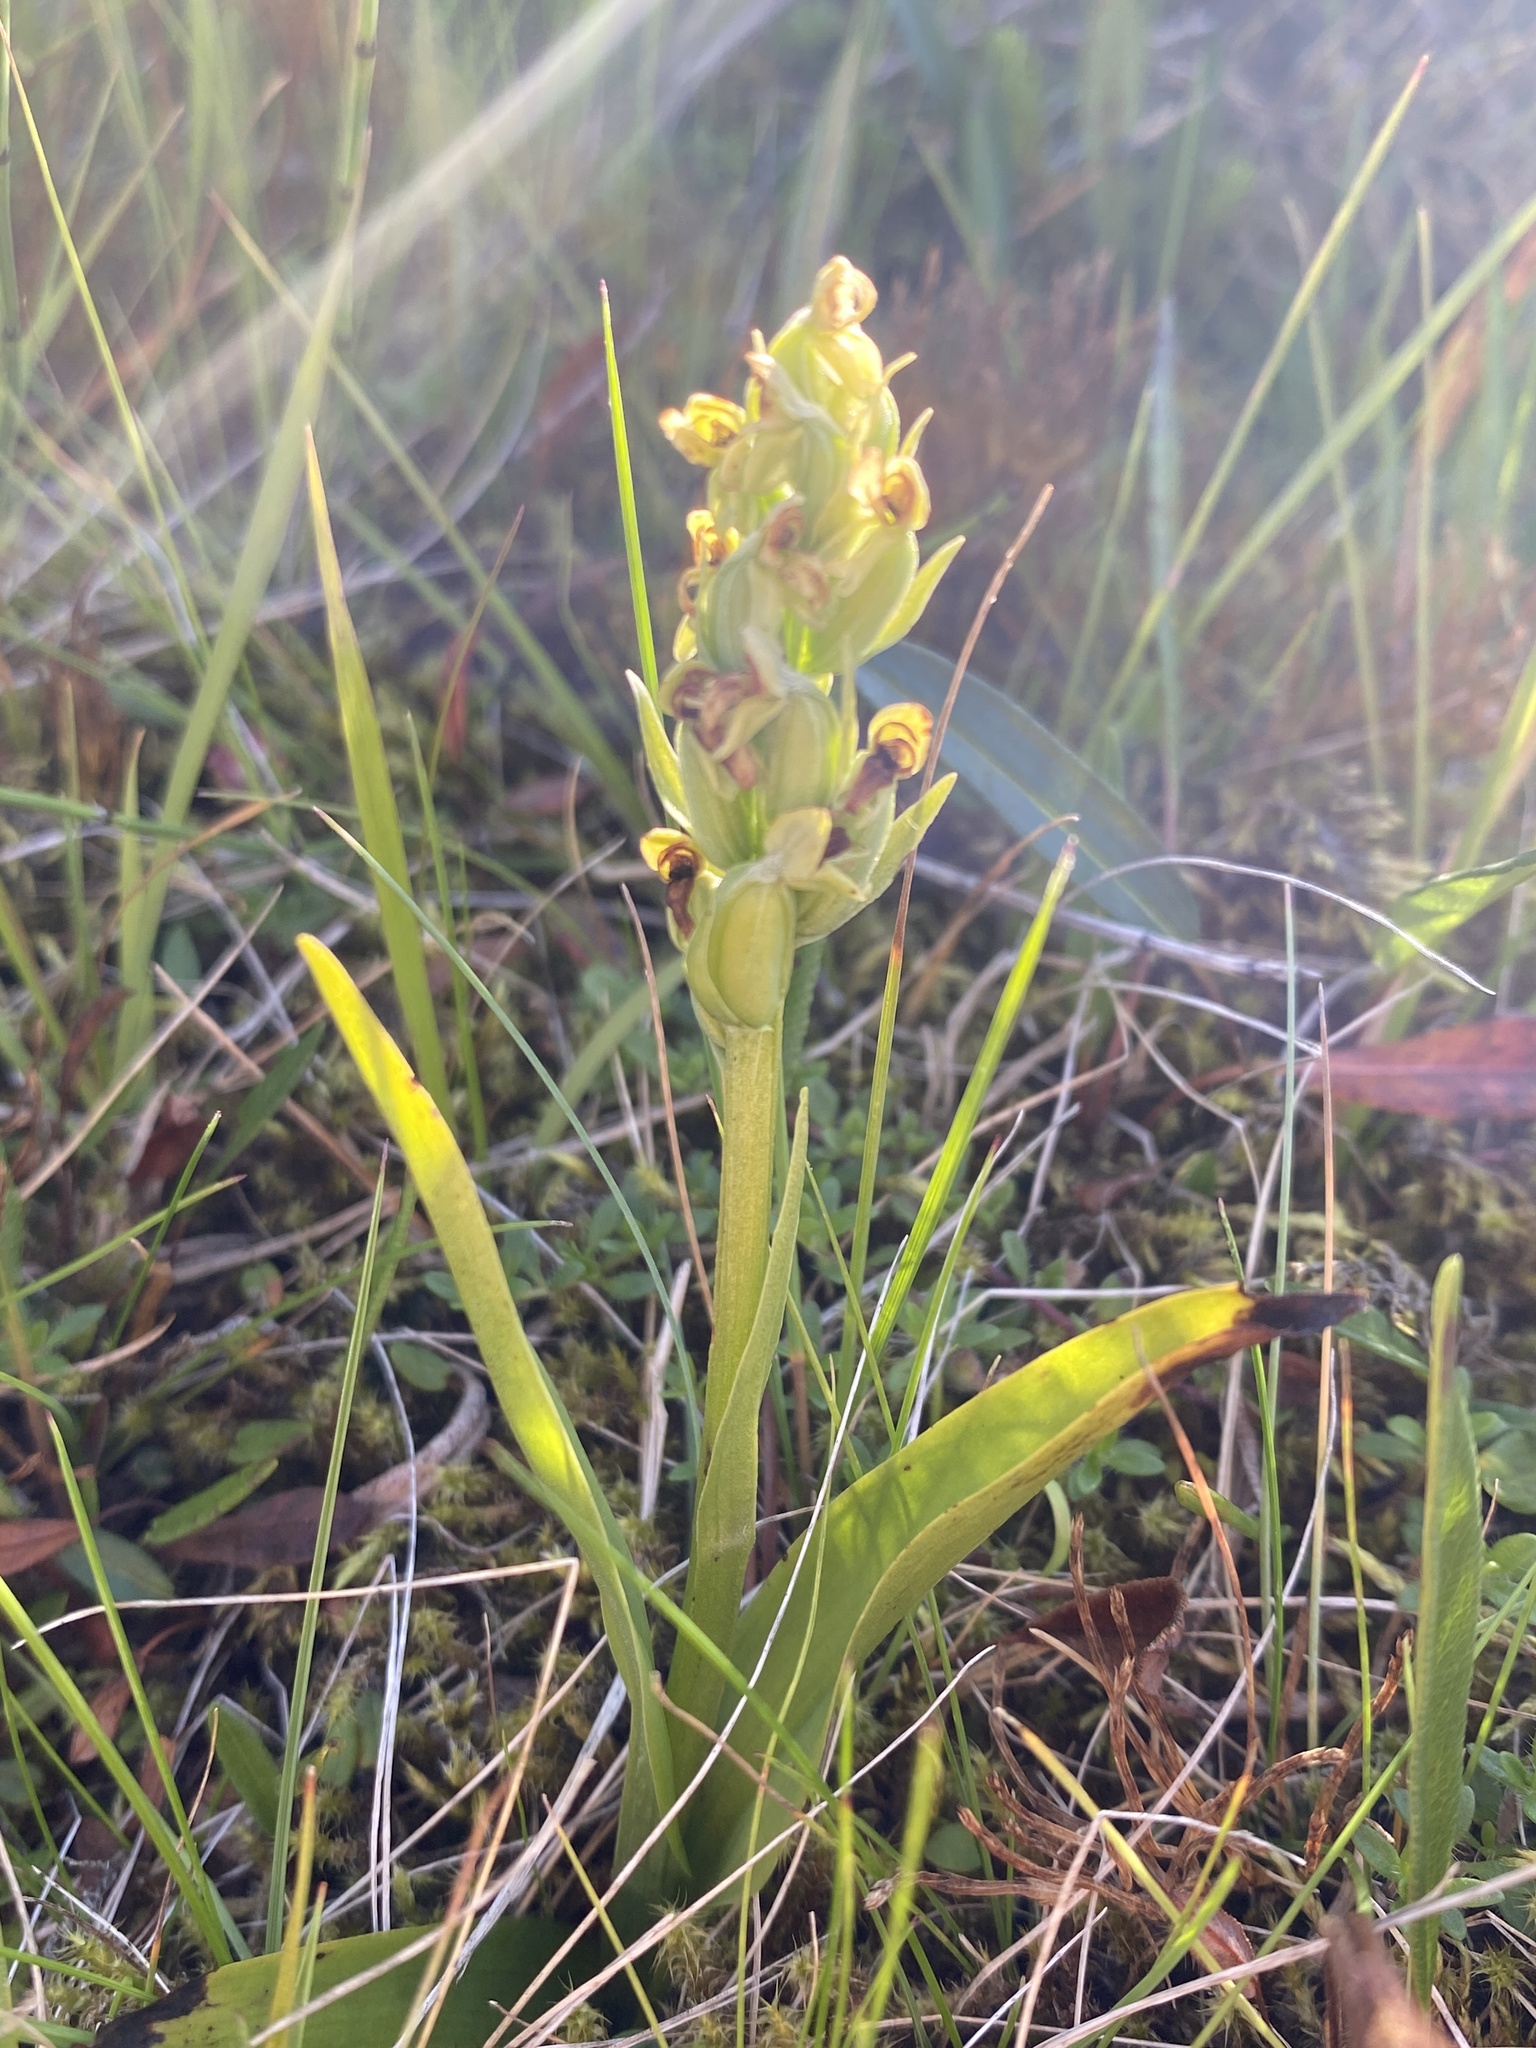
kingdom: Plantae
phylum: Tracheophyta
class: Liliopsida
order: Asparagales
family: Orchidaceae
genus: Platanthera
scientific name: Platanthera hyperborea
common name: Northern green orchid
